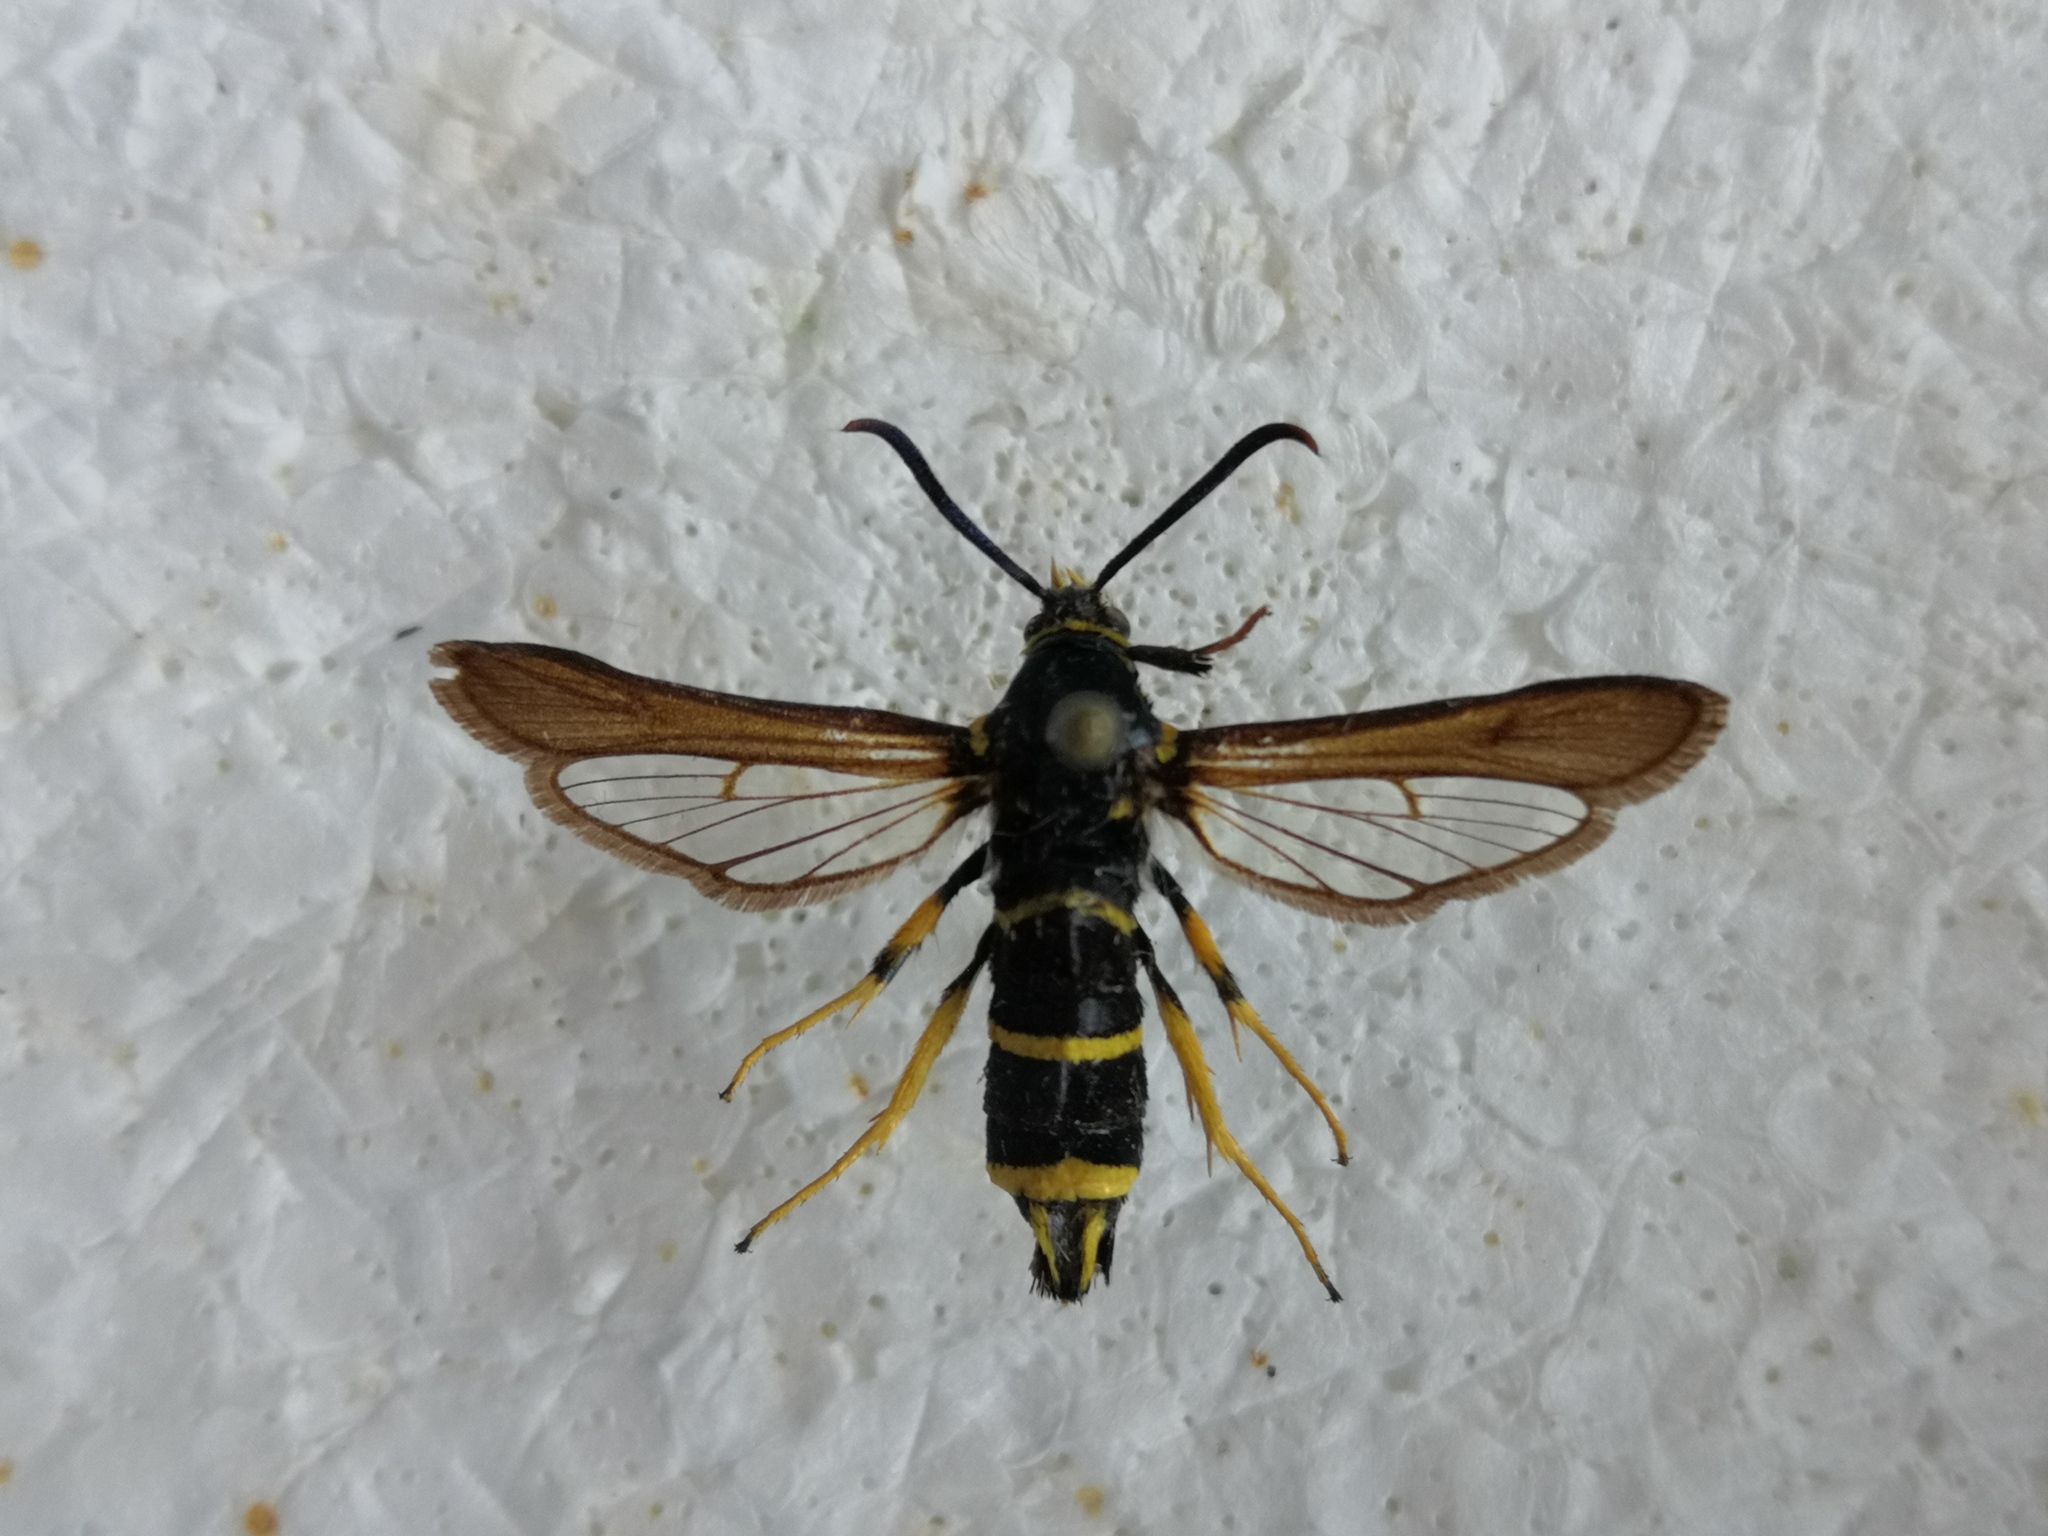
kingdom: Animalia
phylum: Arthropoda
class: Insecta
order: Lepidoptera
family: Sesiidae
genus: Paranthrene
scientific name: Paranthrene tabaniformis
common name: Dusky clearwing
